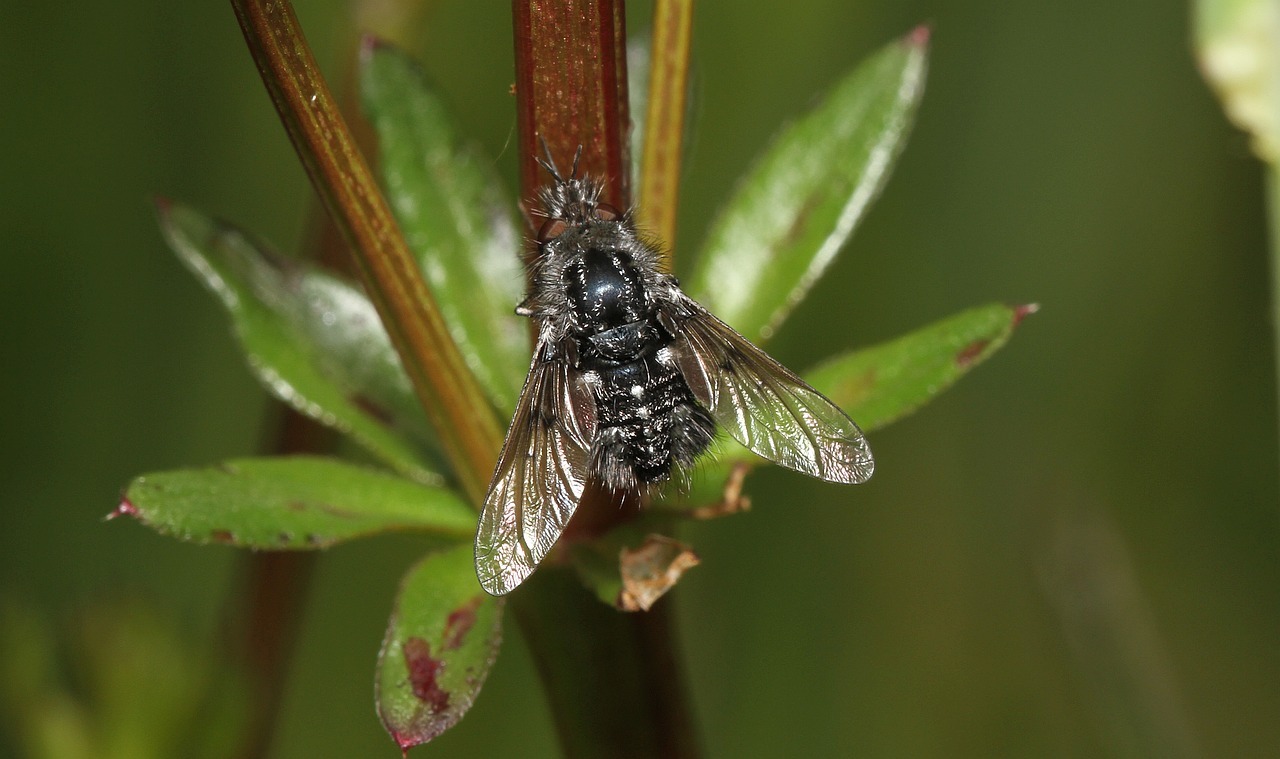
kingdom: Animalia
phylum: Arthropoda
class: Insecta
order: Diptera
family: Bombyliidae
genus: Bombylella
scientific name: Bombylella atra
